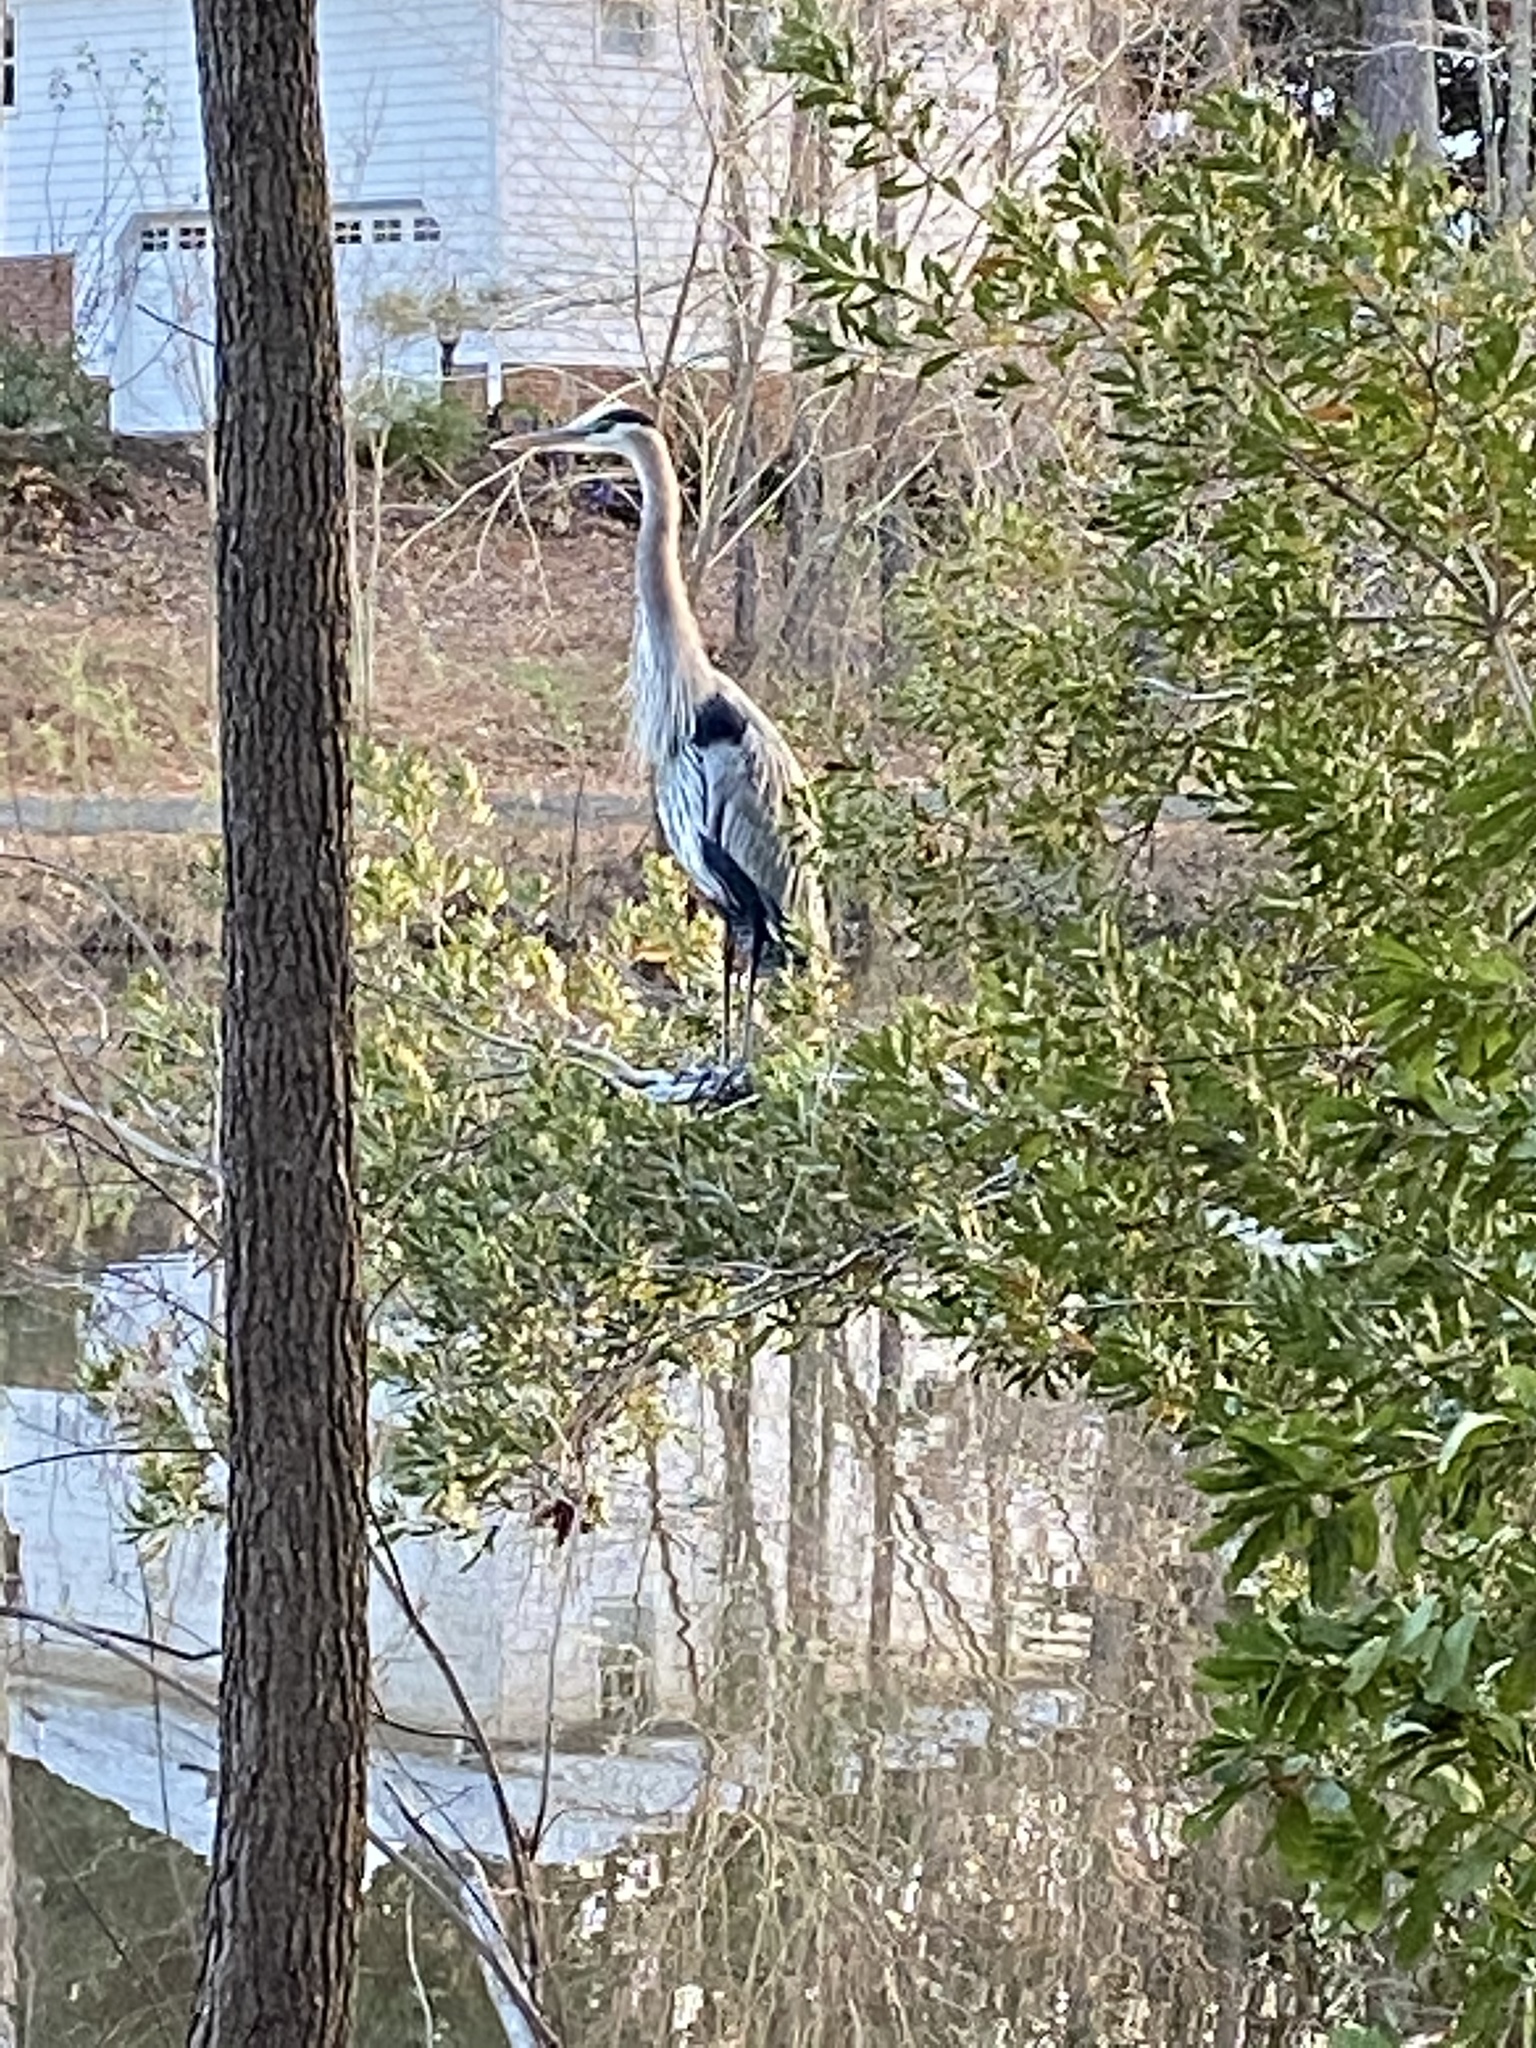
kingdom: Animalia
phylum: Chordata
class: Aves
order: Pelecaniformes
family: Ardeidae
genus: Ardea
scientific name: Ardea herodias
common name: Great blue heron
